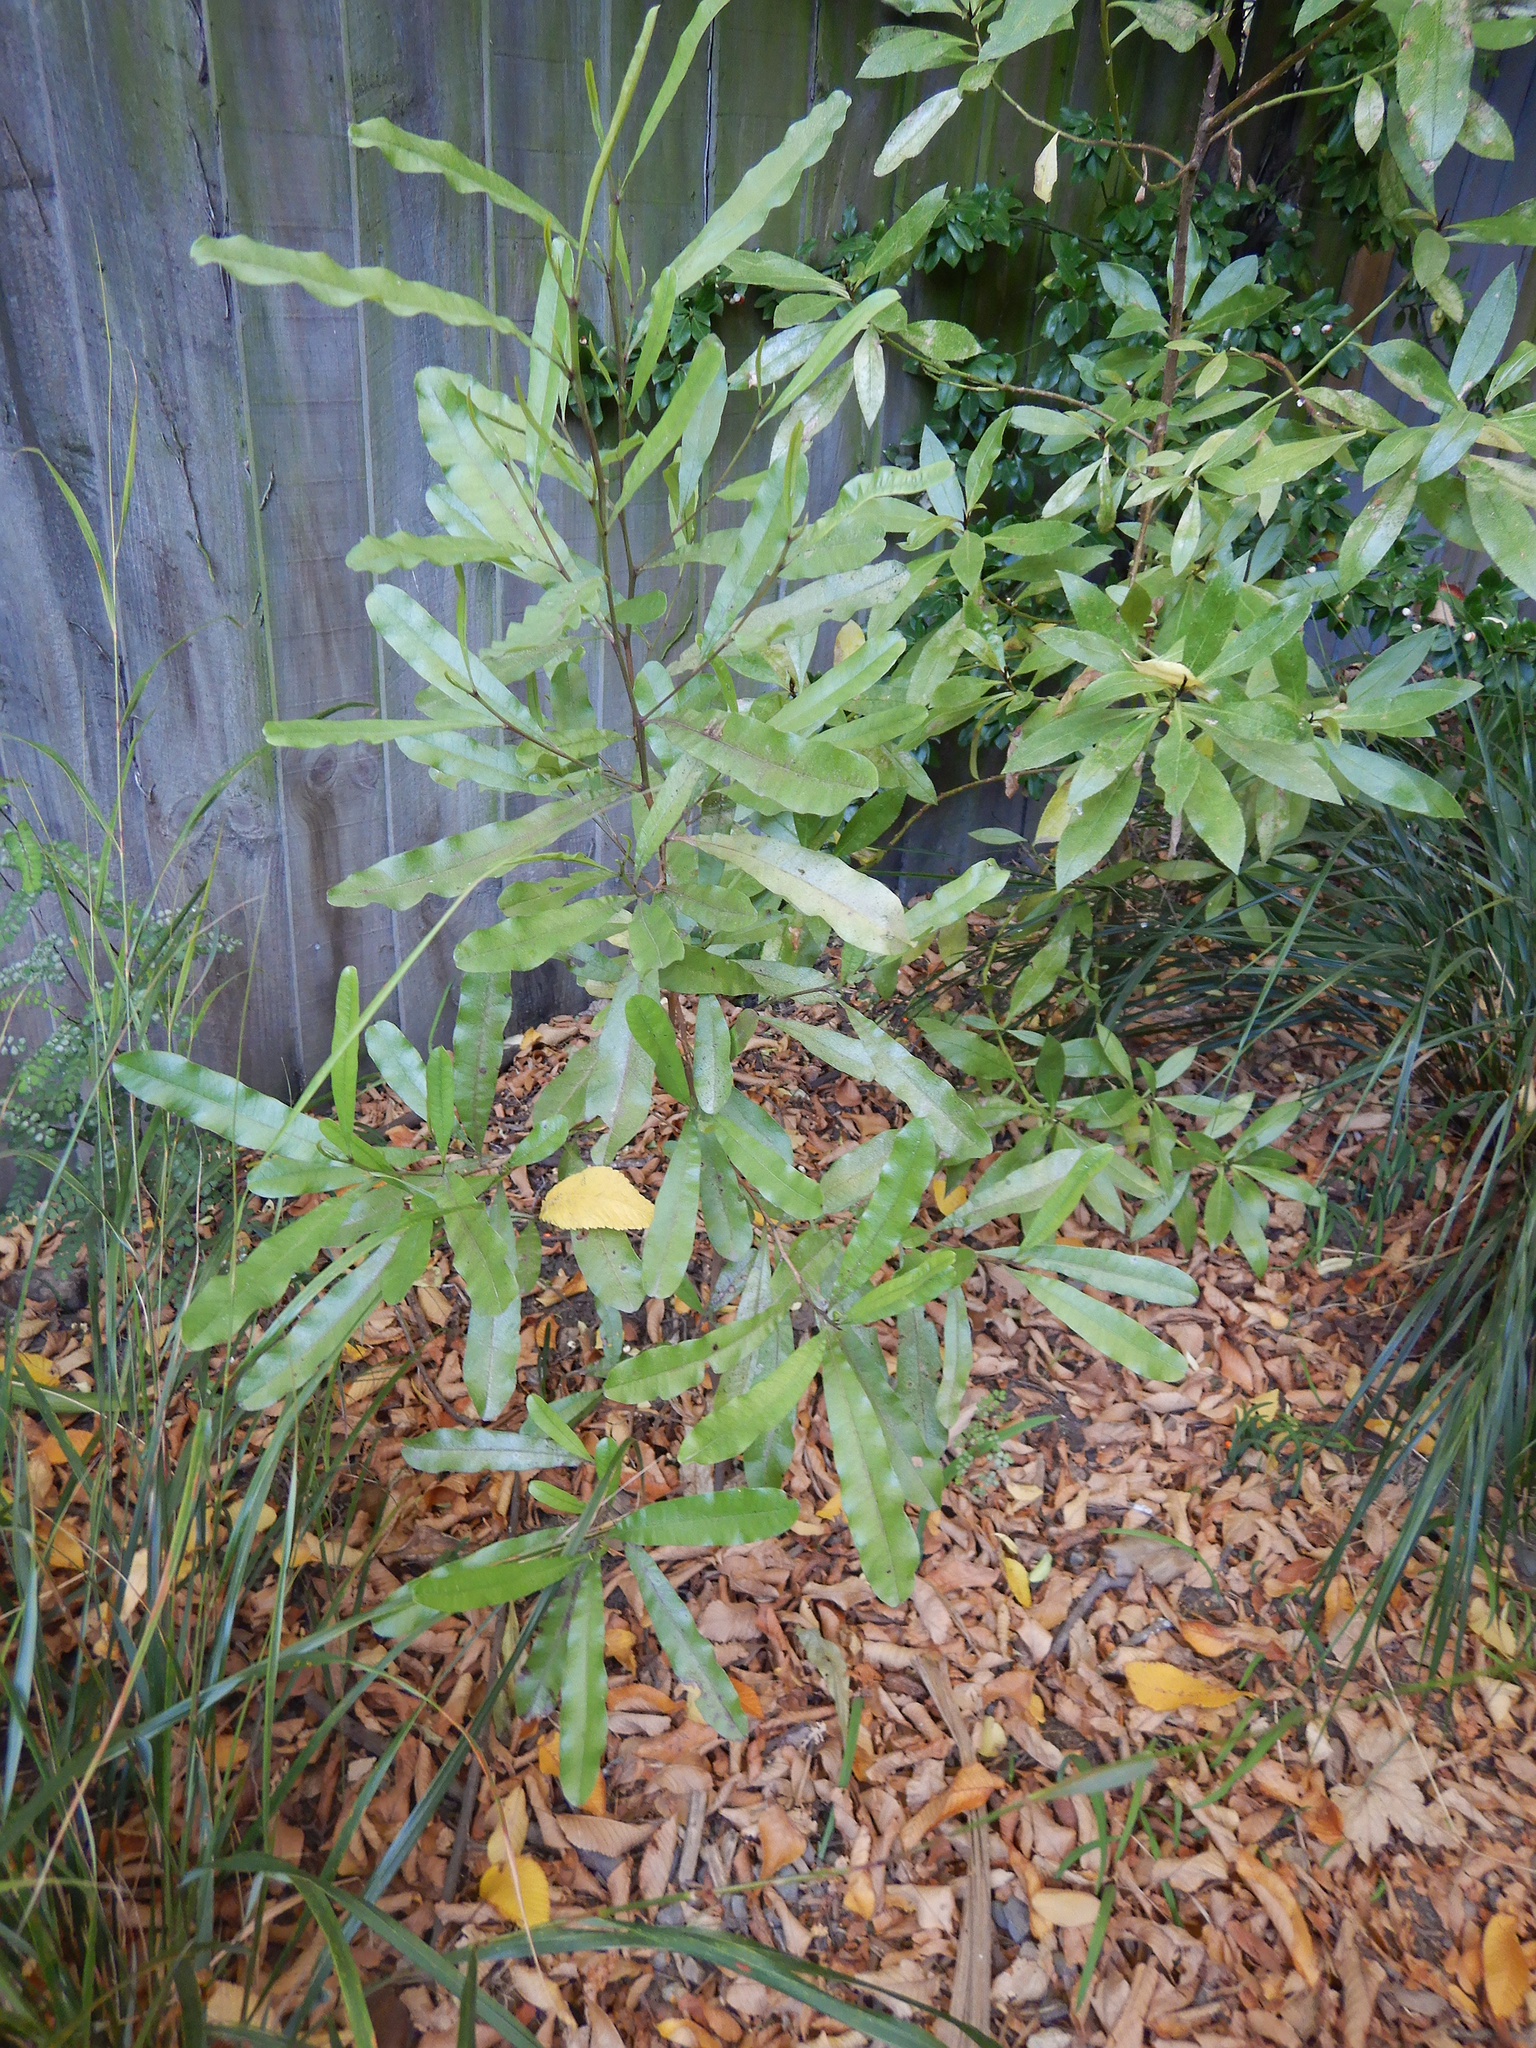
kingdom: Plantae
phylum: Tracheophyta
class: Magnoliopsida
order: Sapindales
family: Sapindaceae
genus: Dodonaea
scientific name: Dodonaea viscosa
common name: Hopbush
